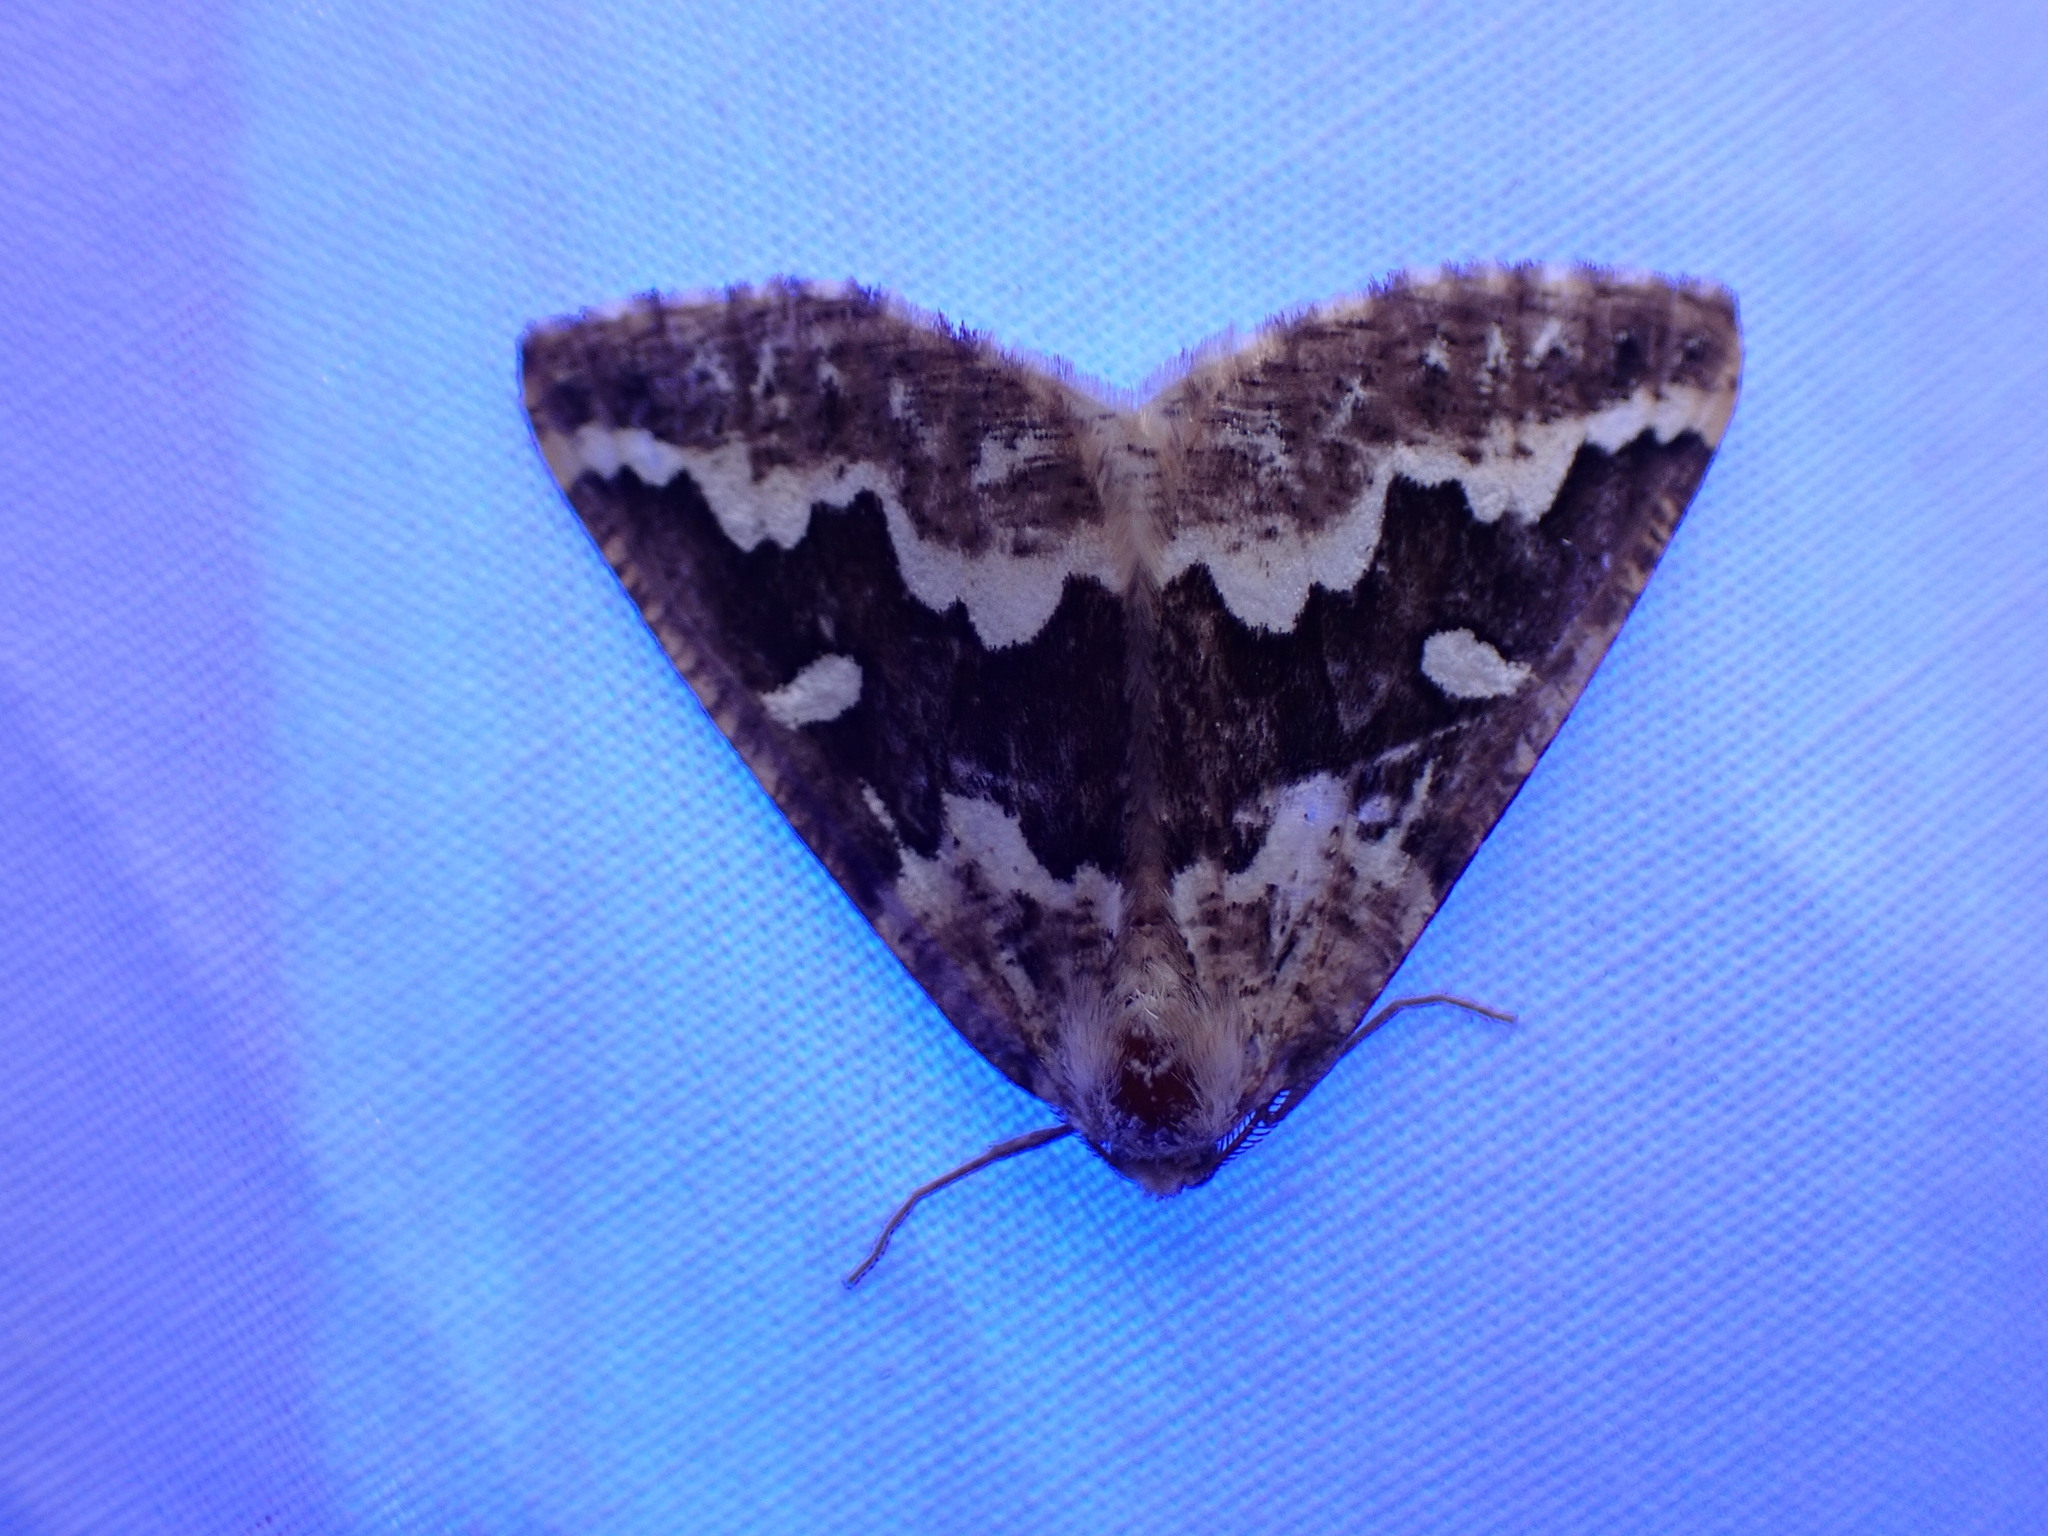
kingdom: Animalia
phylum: Arthropoda
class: Insecta
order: Lepidoptera
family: Geometridae
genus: Caripeta
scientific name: Caripeta divisata
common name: Gray spruce looper
